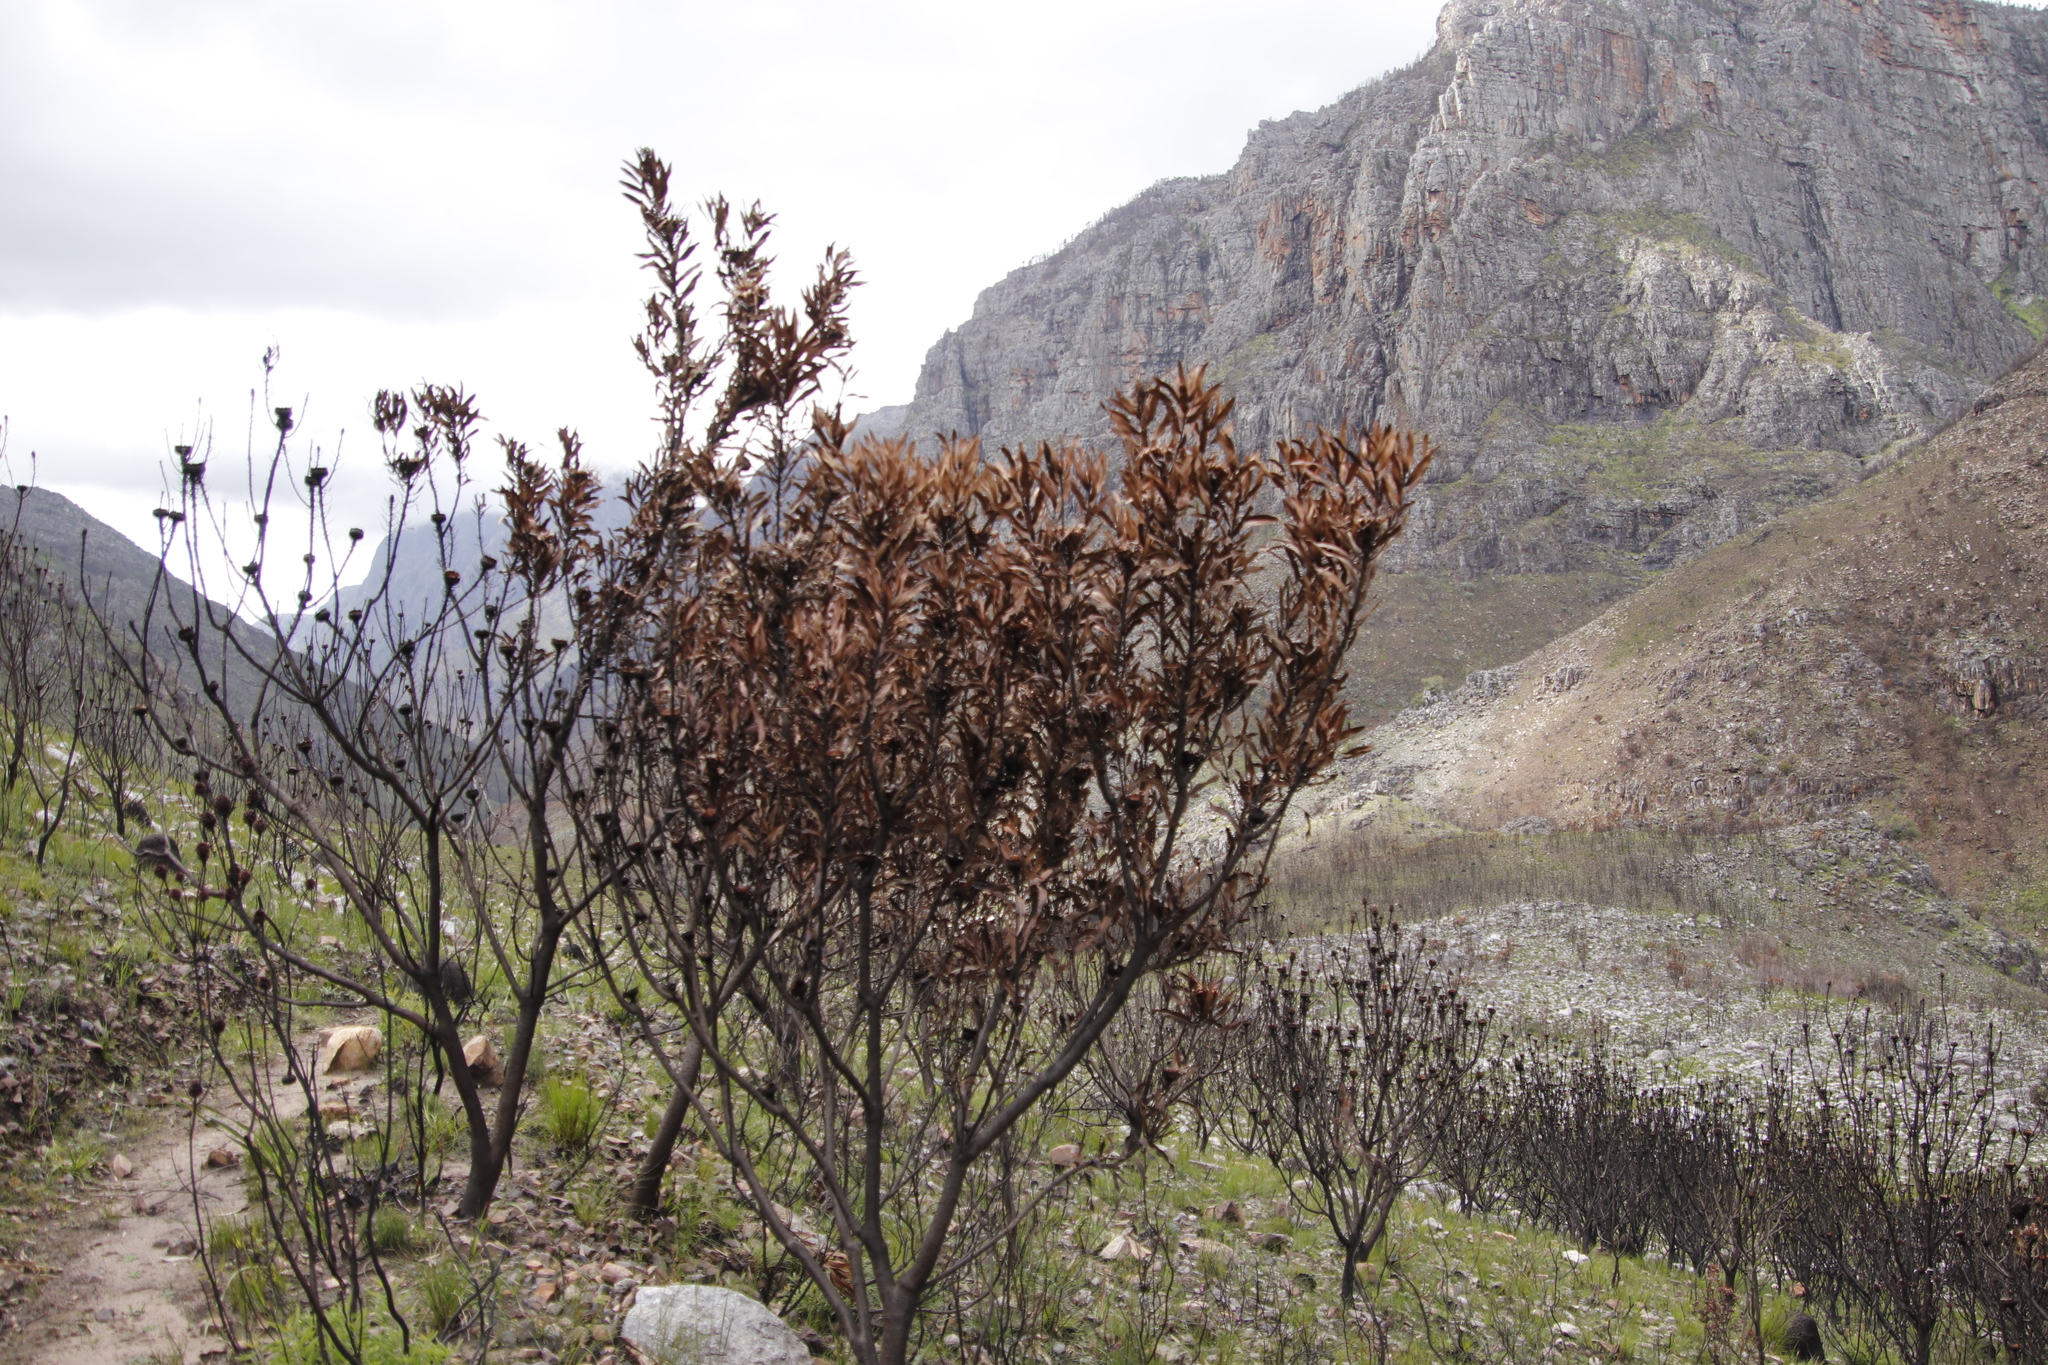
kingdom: Plantae
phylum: Tracheophyta
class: Magnoliopsida
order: Proteales
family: Proteaceae
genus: Protea
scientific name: Protea repens
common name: Sugarbush
